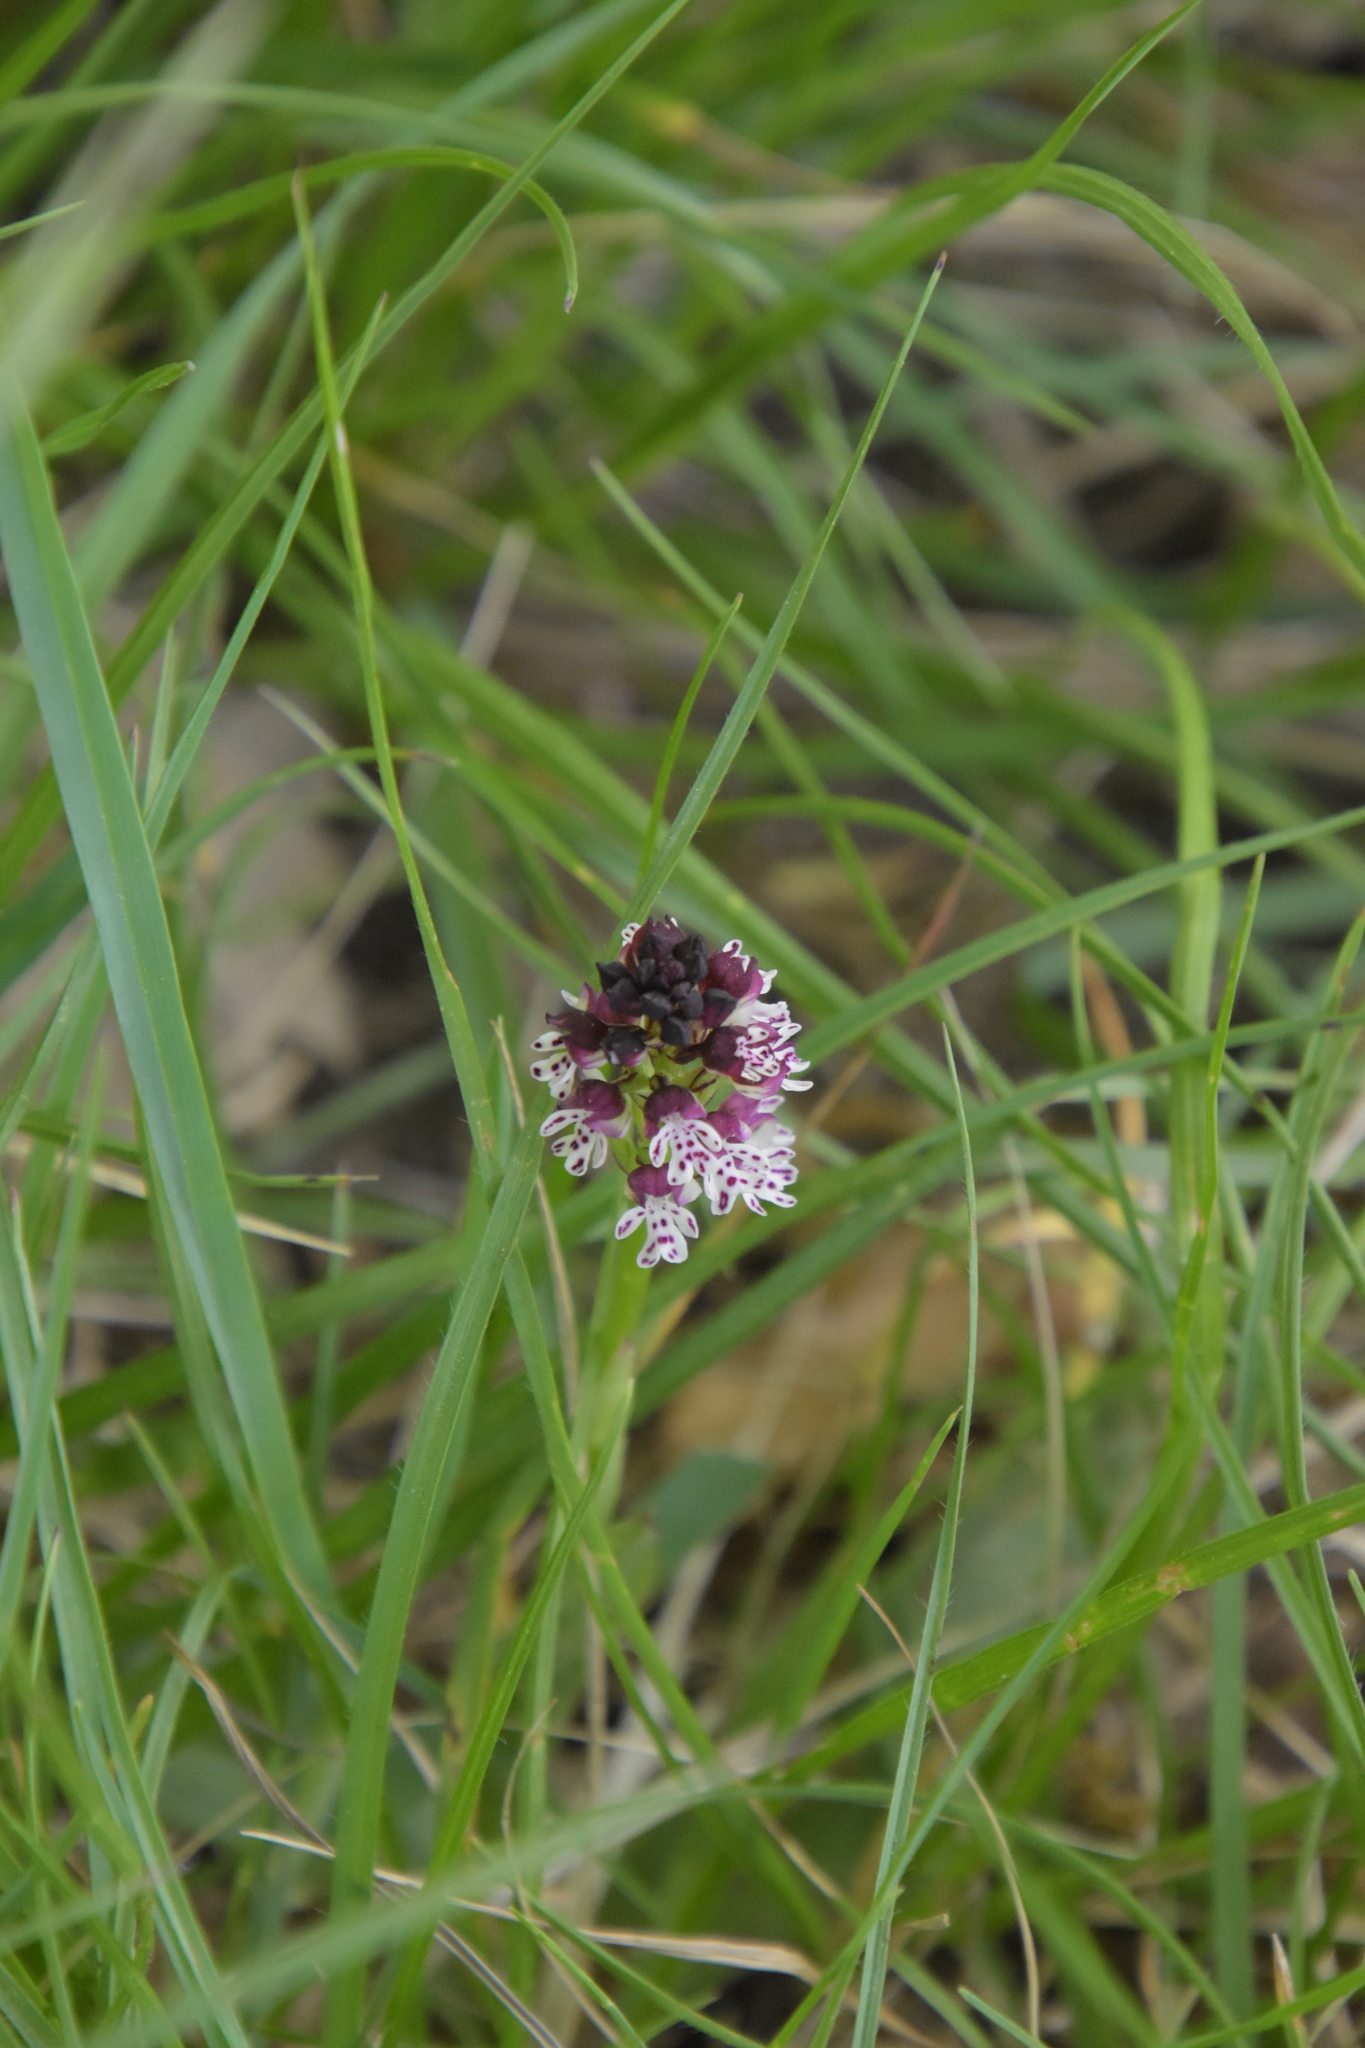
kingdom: Plantae
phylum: Tracheophyta
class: Liliopsida
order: Asparagales
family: Orchidaceae
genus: Neotinea
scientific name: Neotinea ustulata
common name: Burnt orchid
